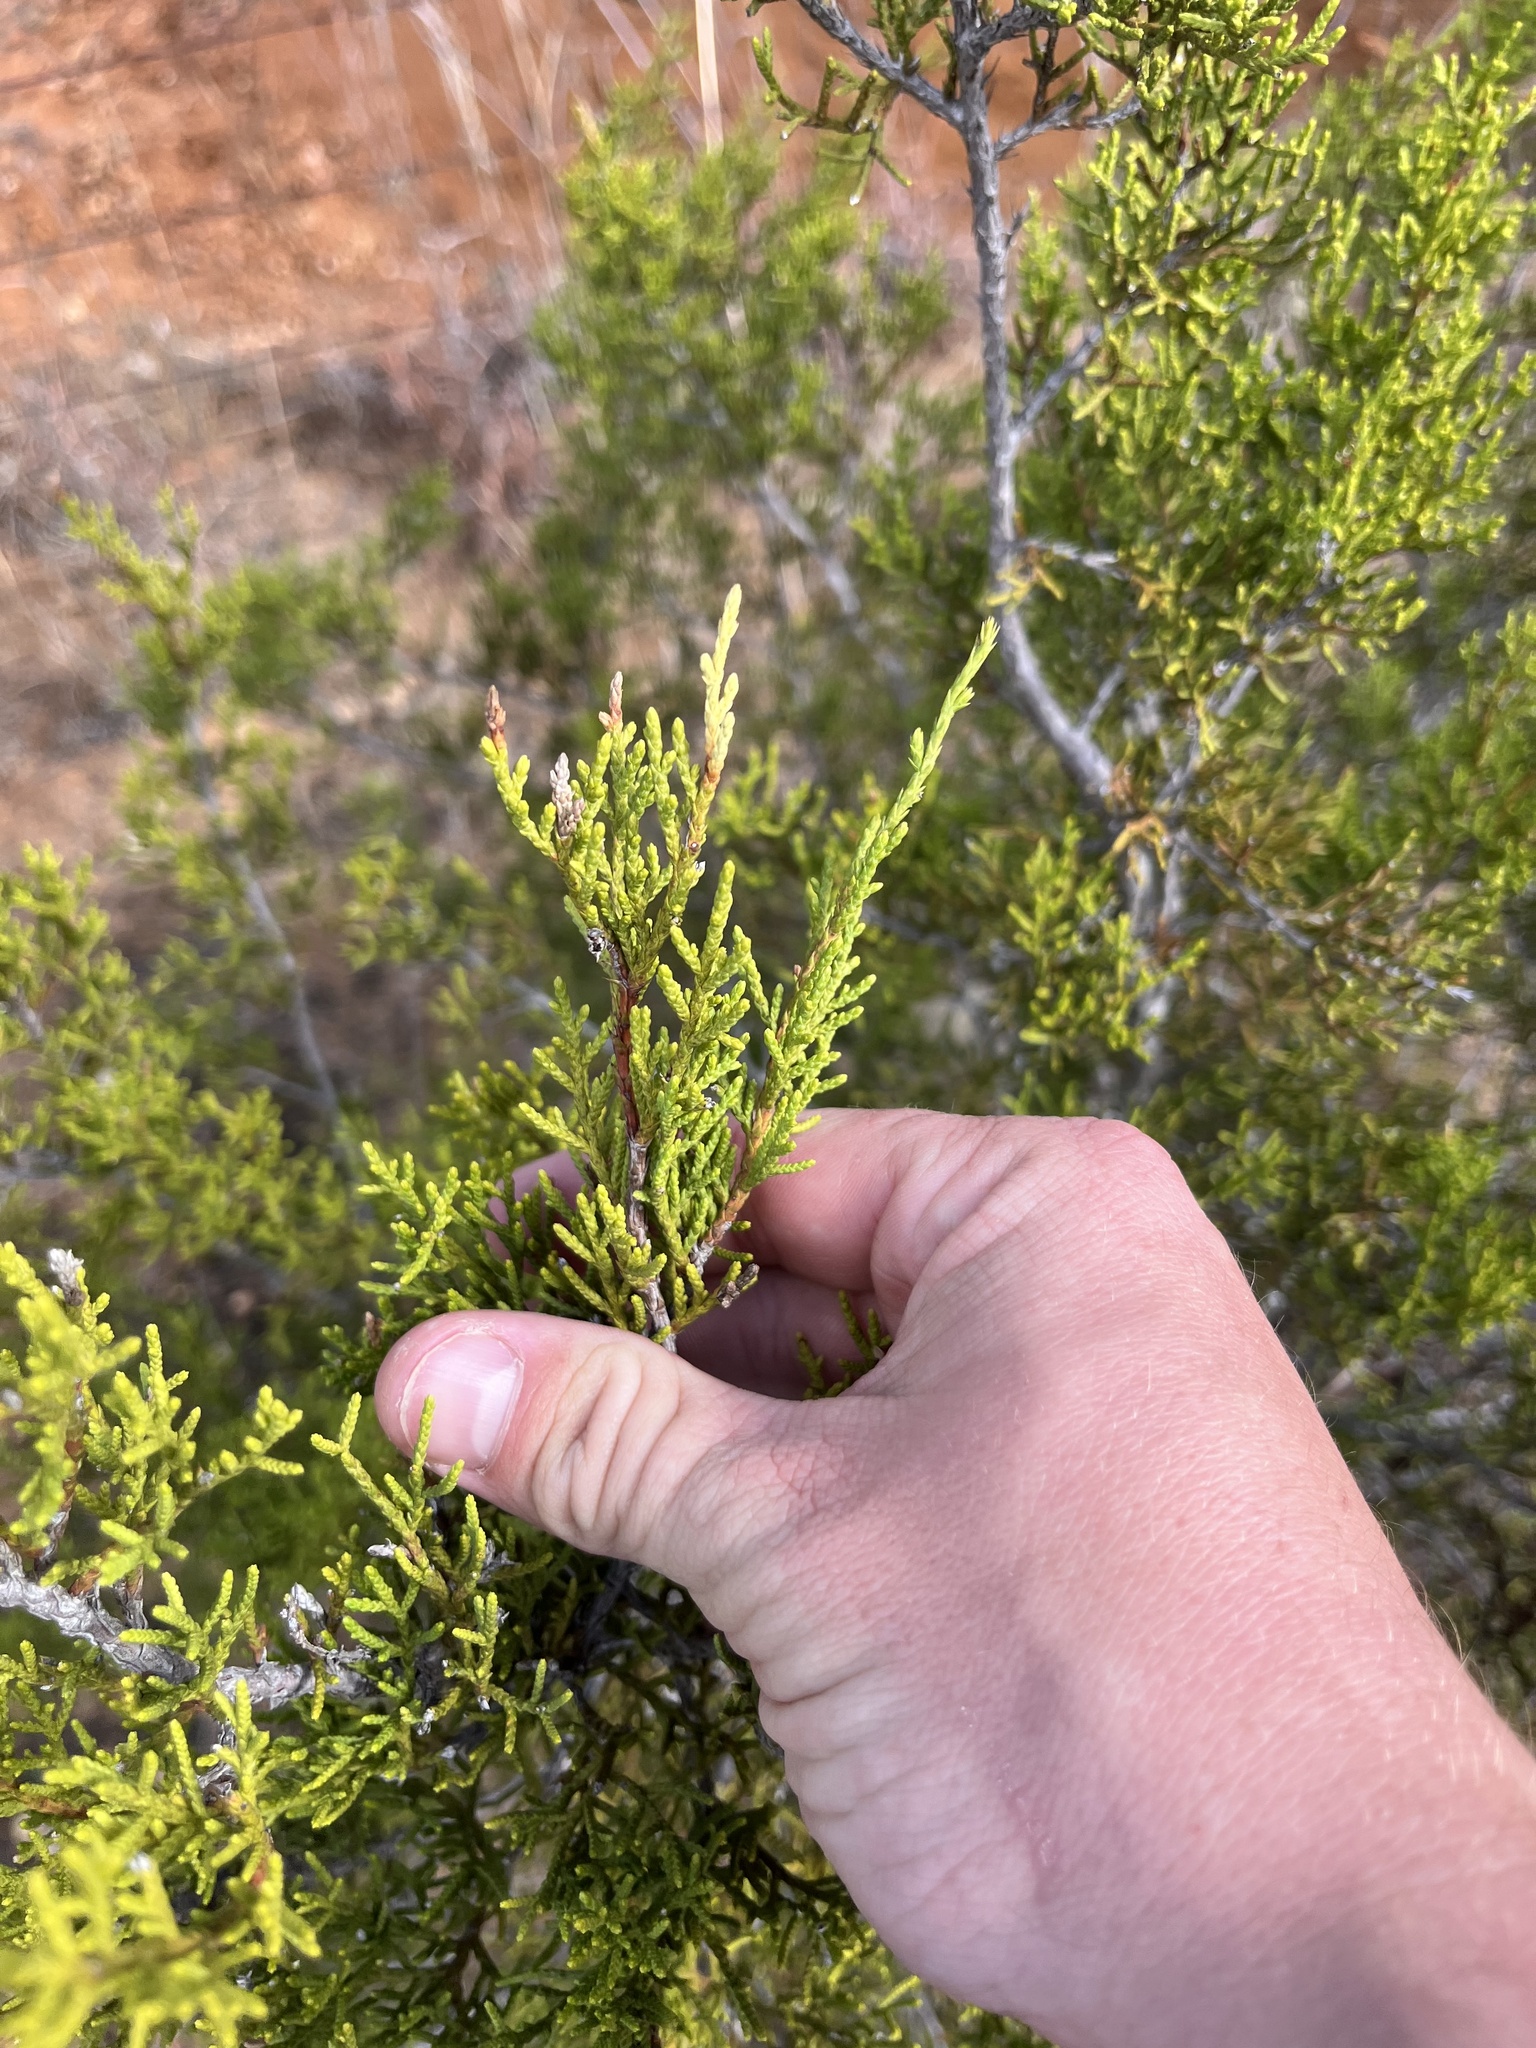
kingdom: Plantae
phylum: Tracheophyta
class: Pinopsida
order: Pinales
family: Cupressaceae
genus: Juniperus
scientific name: Juniperus ashei
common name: Mexican juniper
